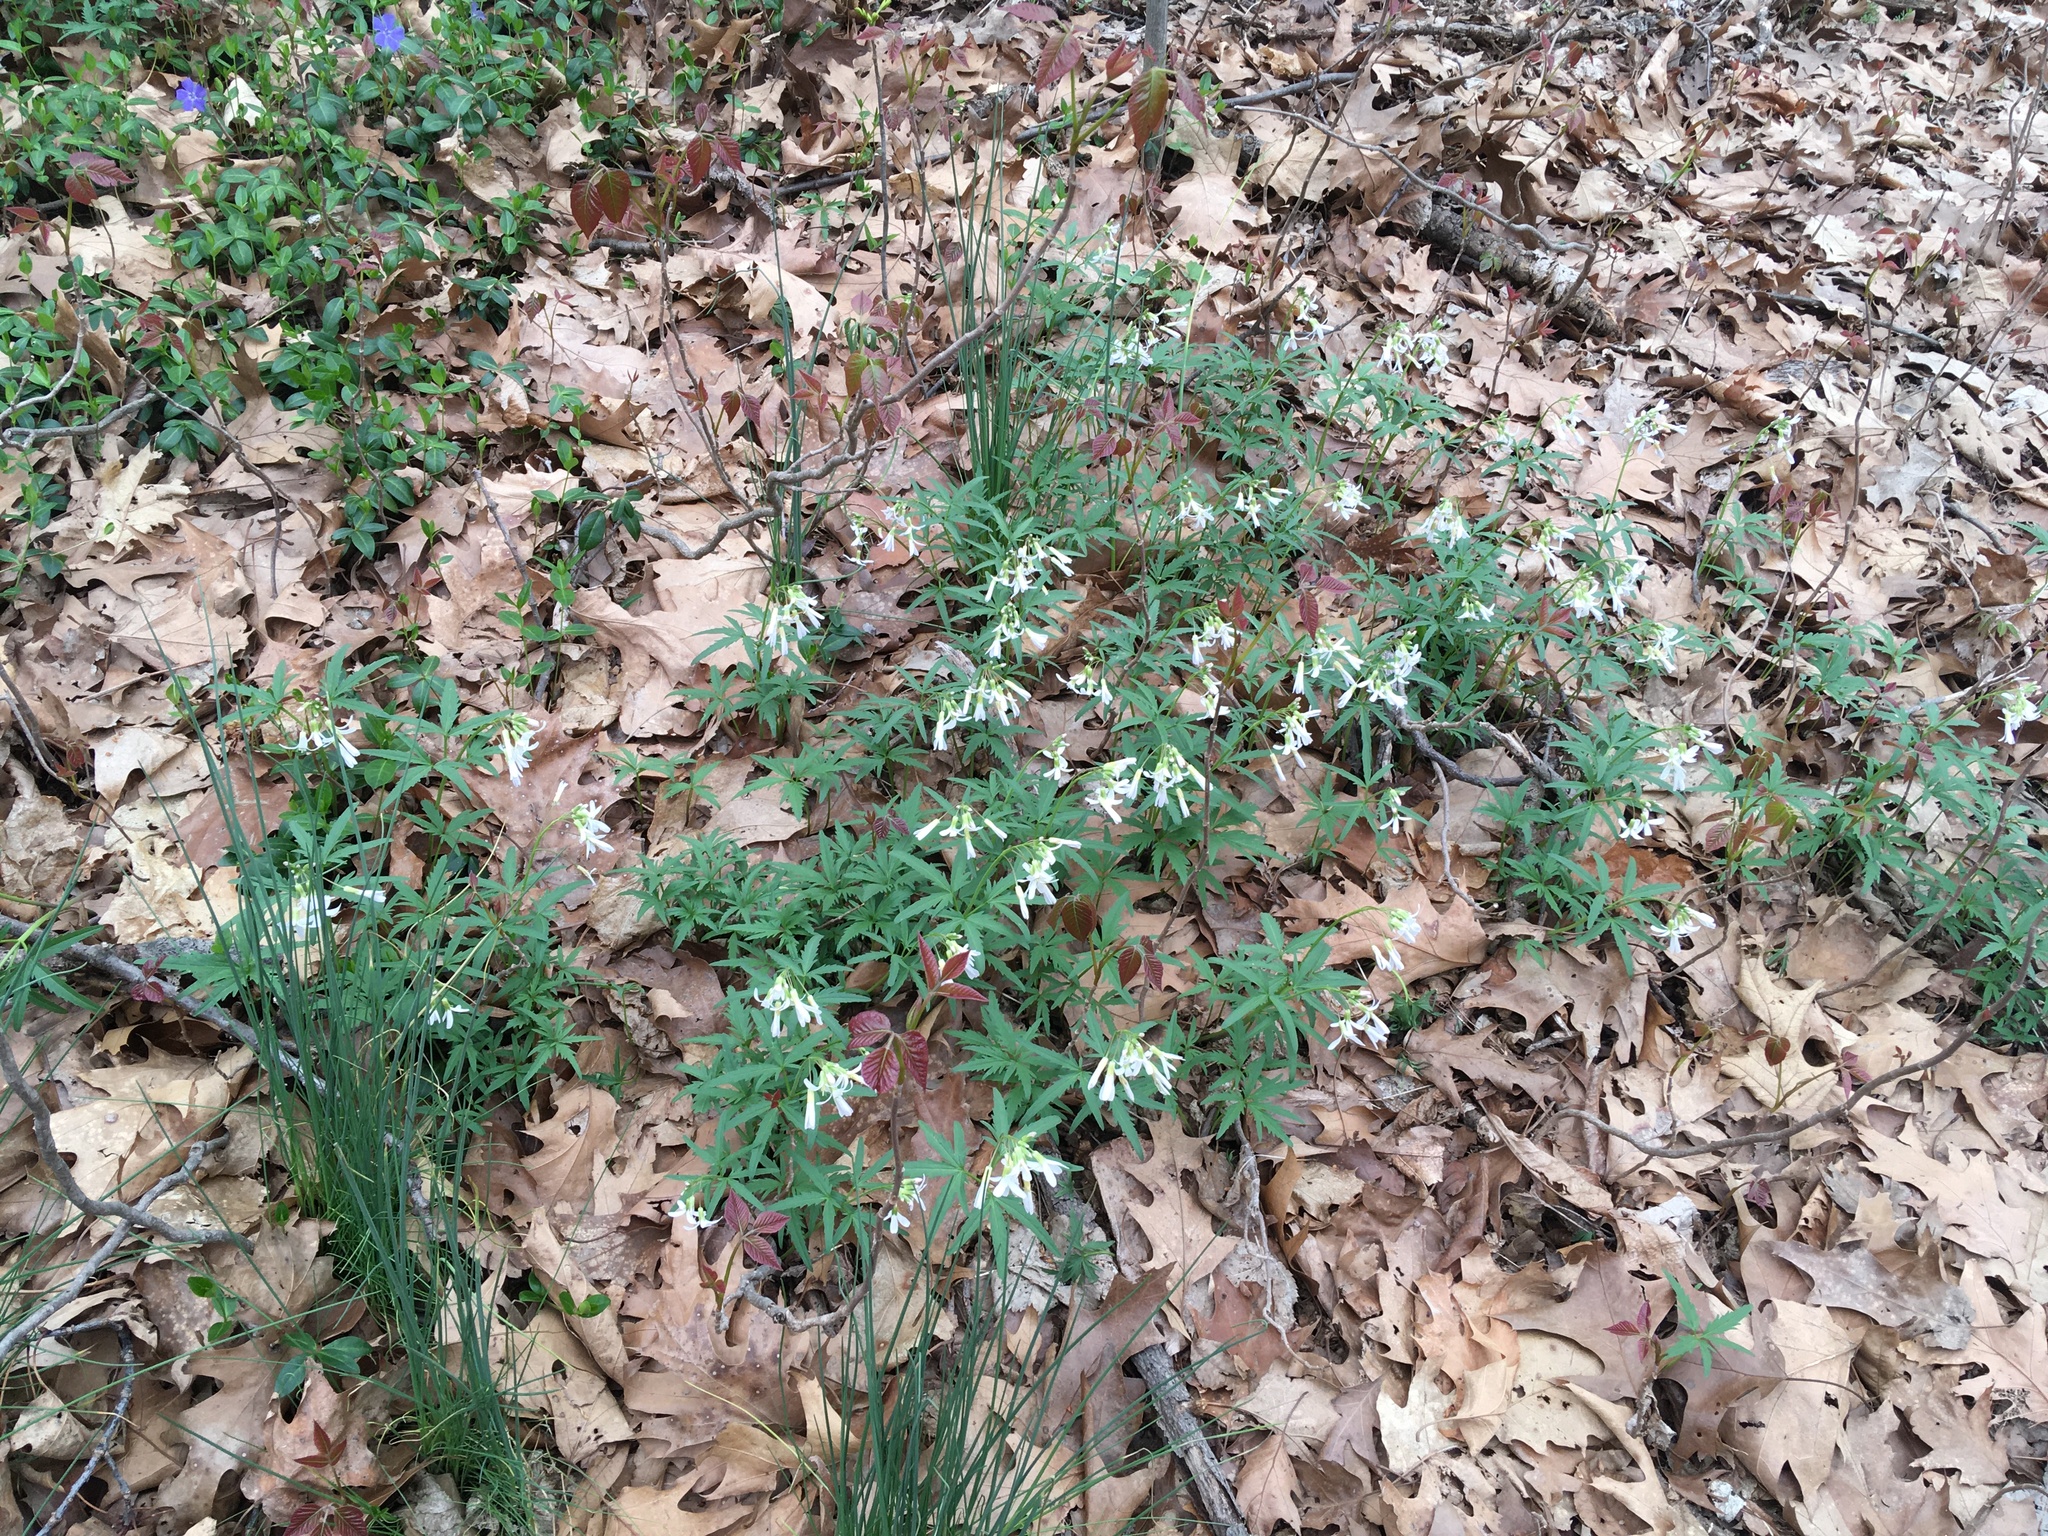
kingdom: Plantae
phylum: Tracheophyta
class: Magnoliopsida
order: Brassicales
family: Brassicaceae
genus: Cardamine
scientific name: Cardamine concatenata
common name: Cut-leaf toothcup
